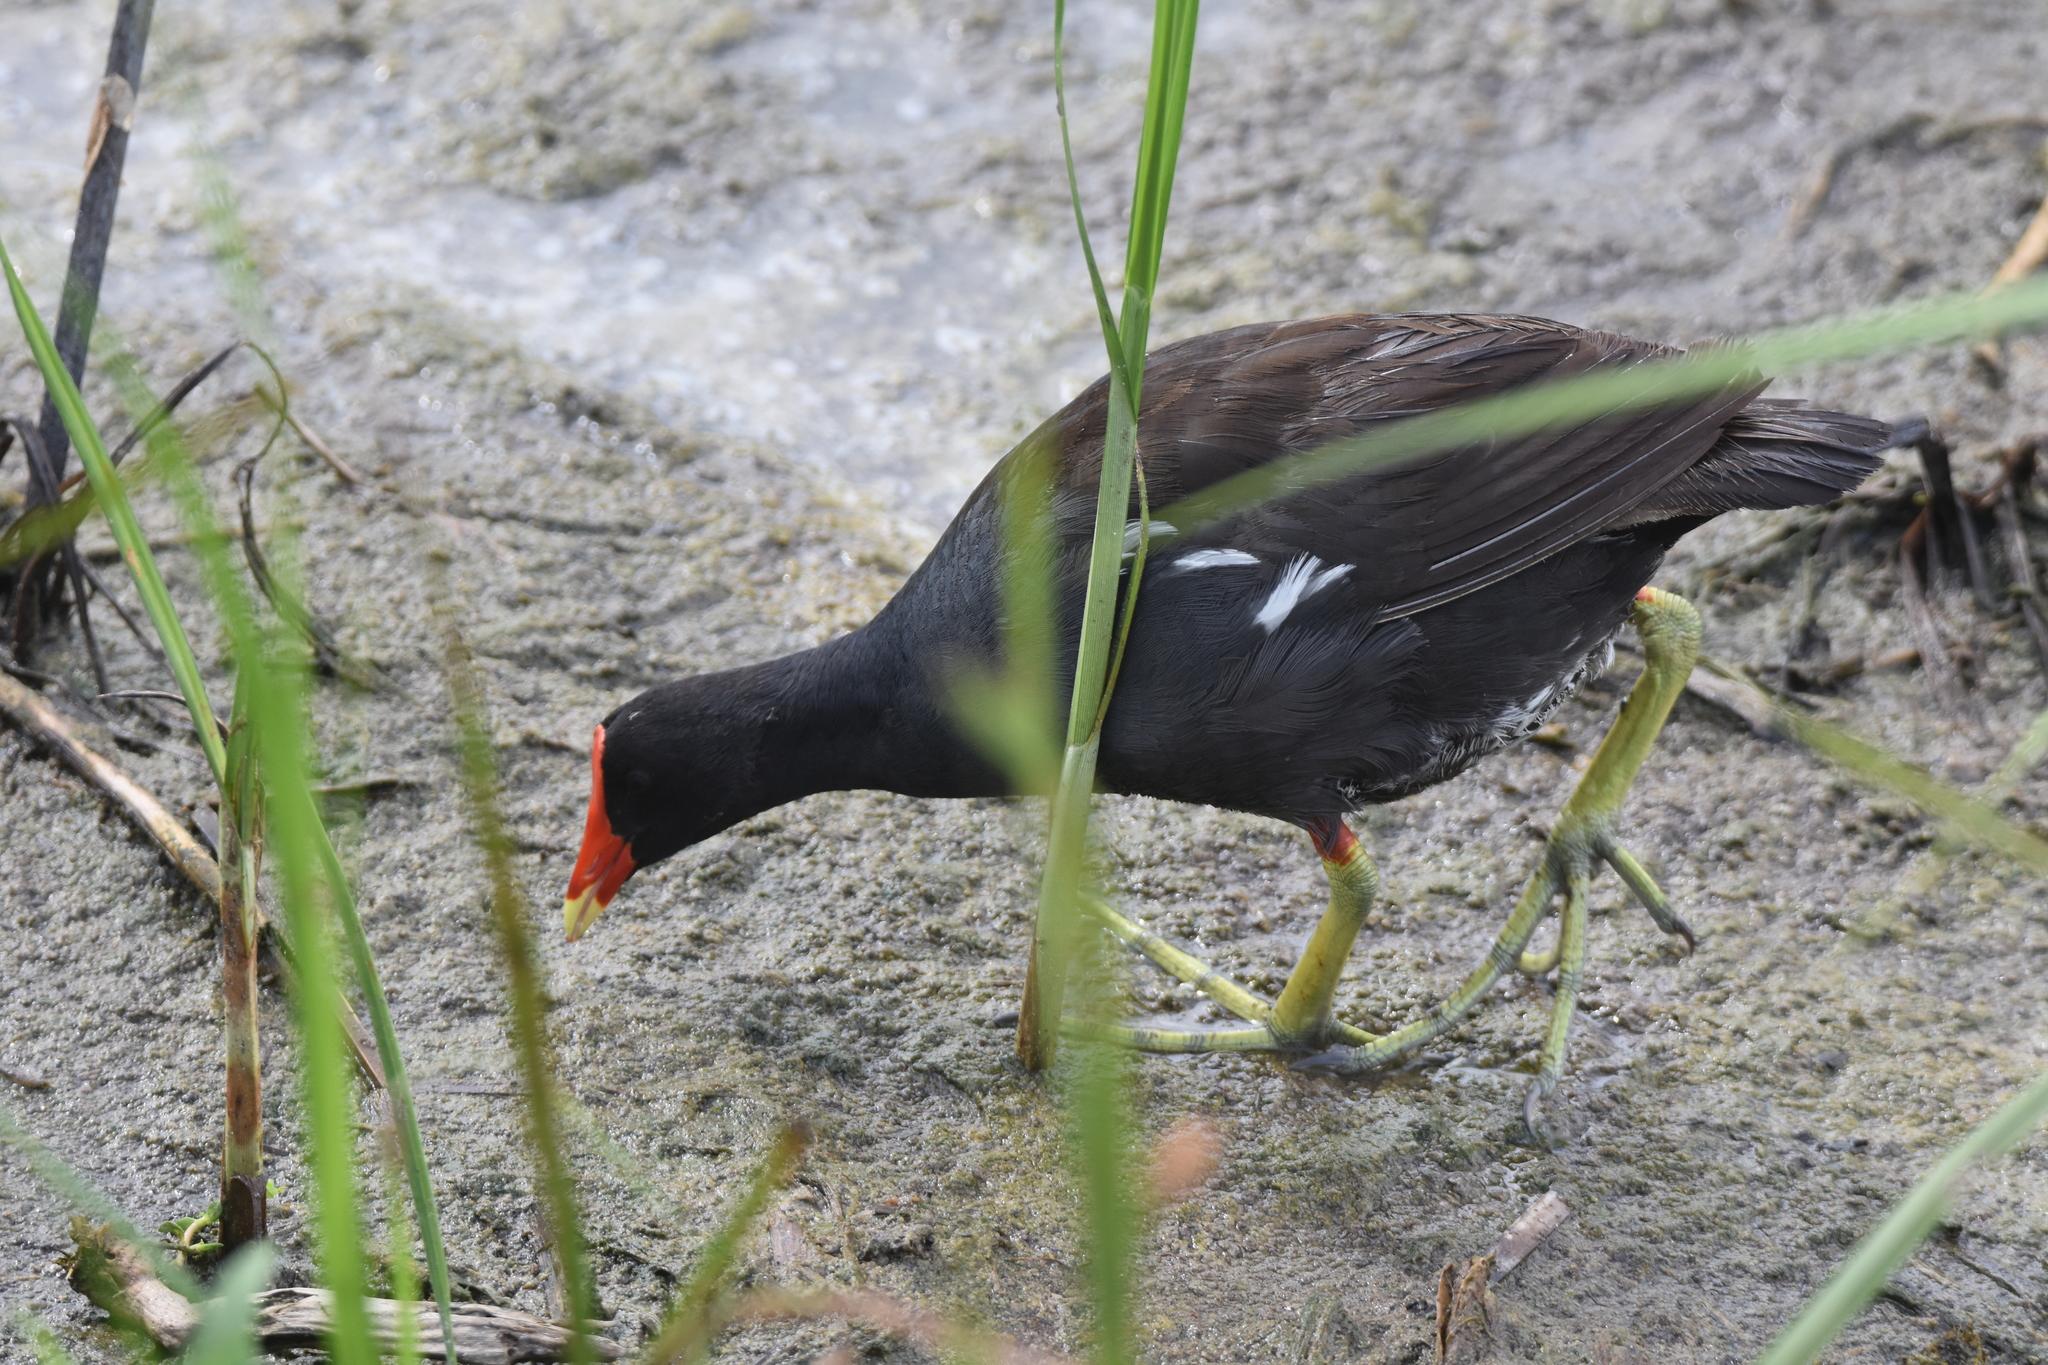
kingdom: Animalia
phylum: Chordata
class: Aves
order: Gruiformes
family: Rallidae
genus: Gallinula
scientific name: Gallinula chloropus
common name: Common moorhen
